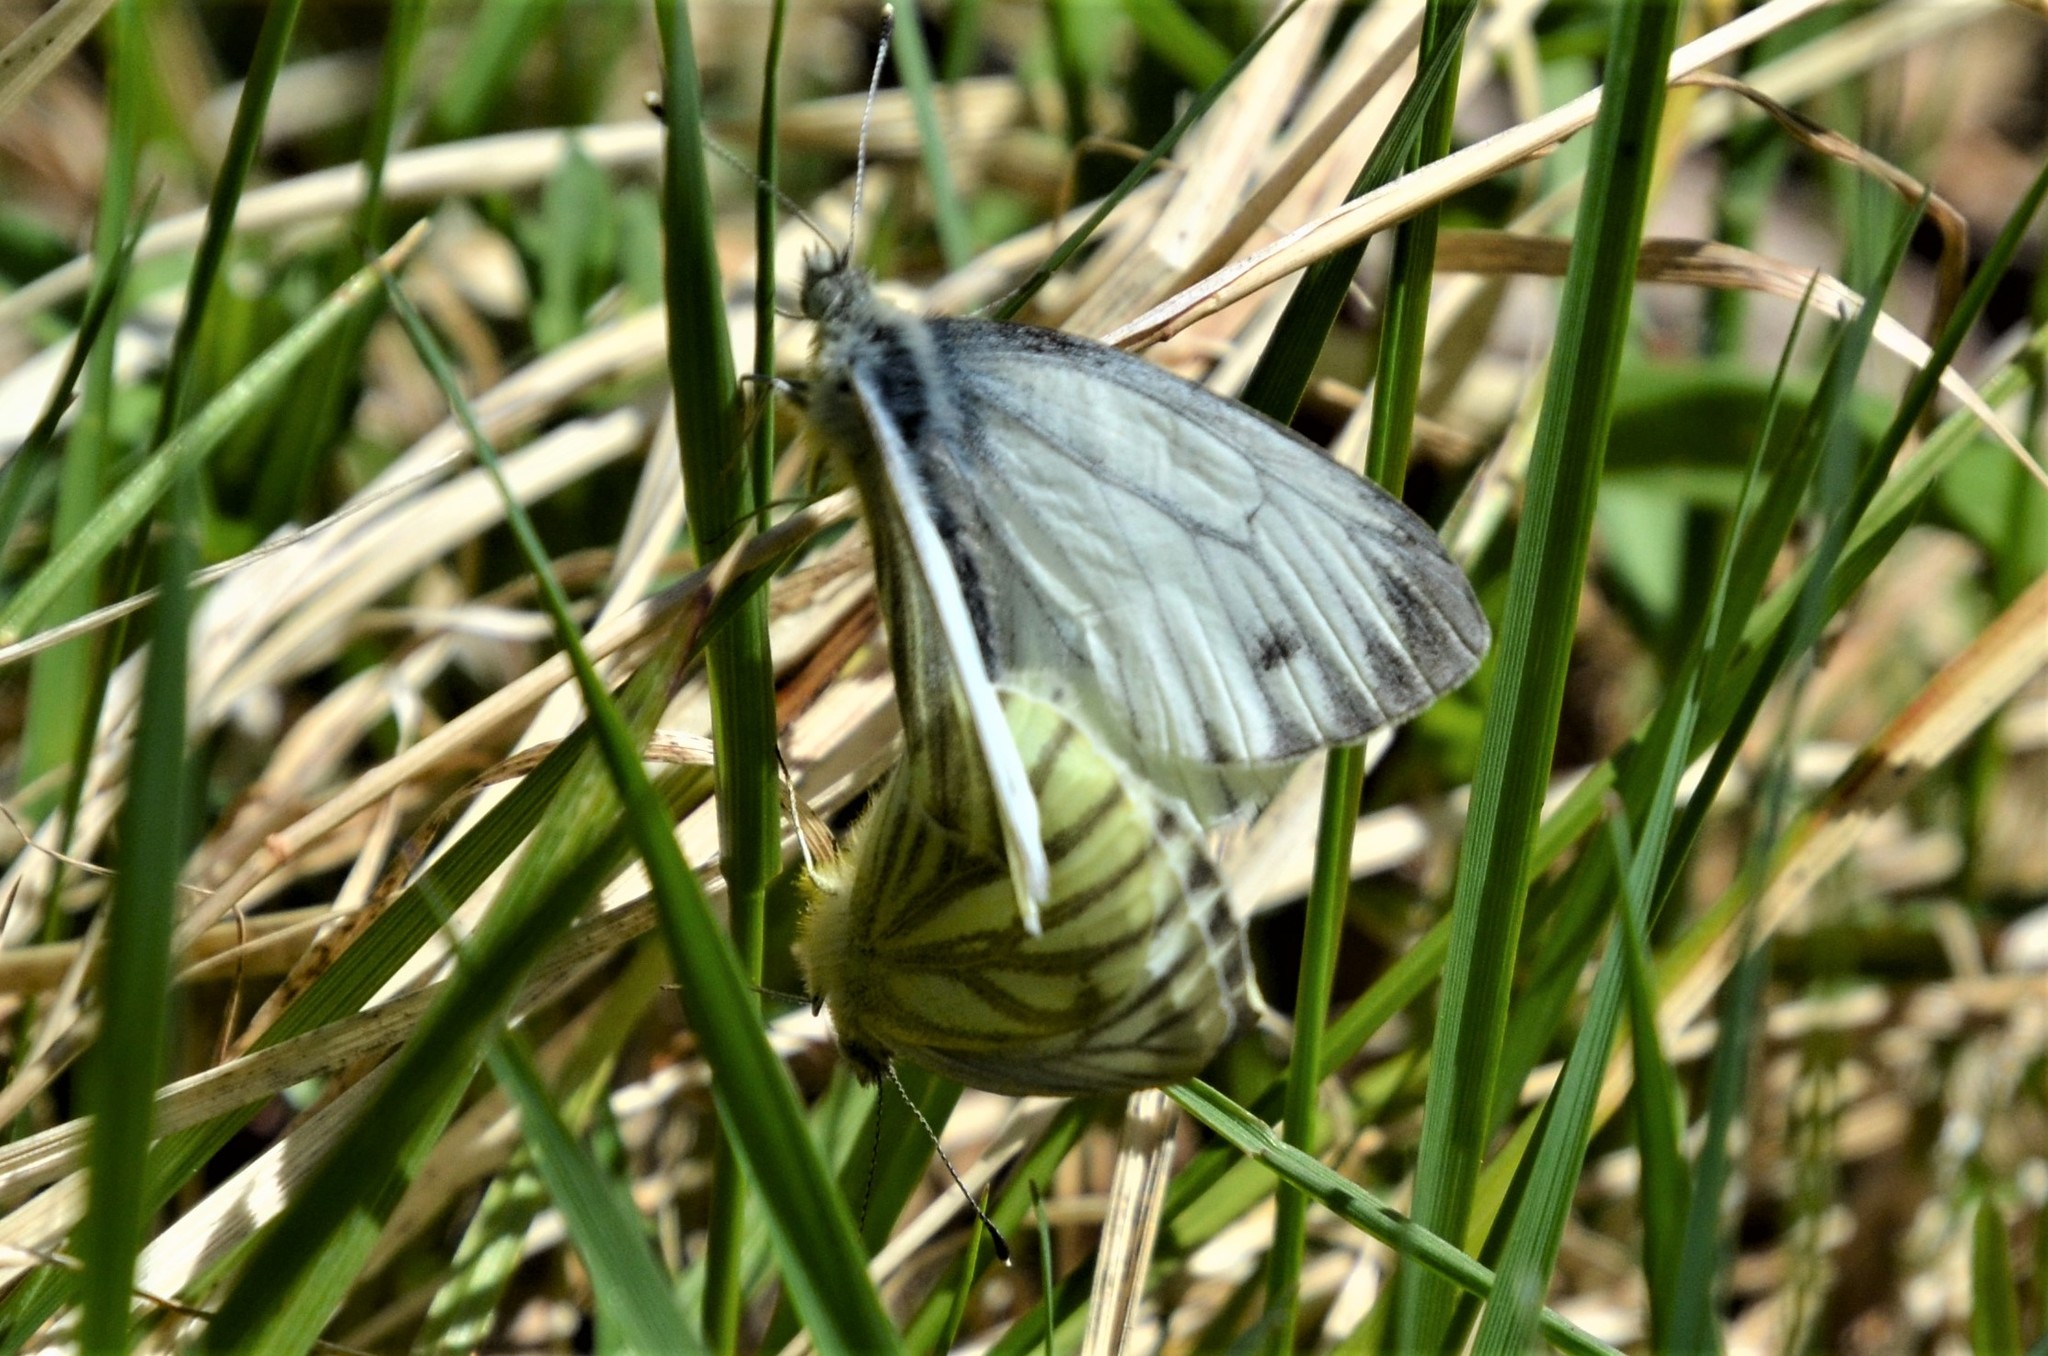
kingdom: Animalia
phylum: Arthropoda
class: Insecta
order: Lepidoptera
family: Pieridae
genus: Pieris
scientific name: Pieris napi
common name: Green-veined white
